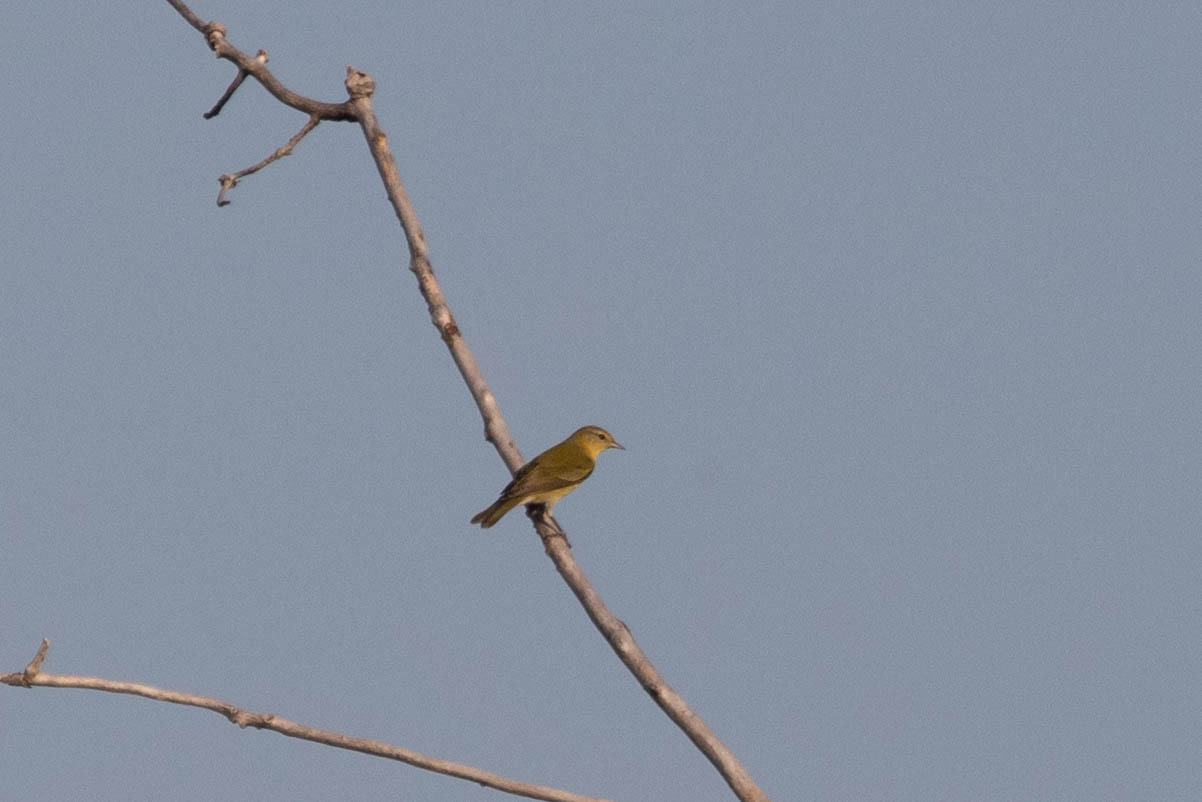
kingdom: Animalia
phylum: Chordata
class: Aves
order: Passeriformes
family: Parulidae
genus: Leiothlypis
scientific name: Leiothlypis peregrina
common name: Tennessee warbler
